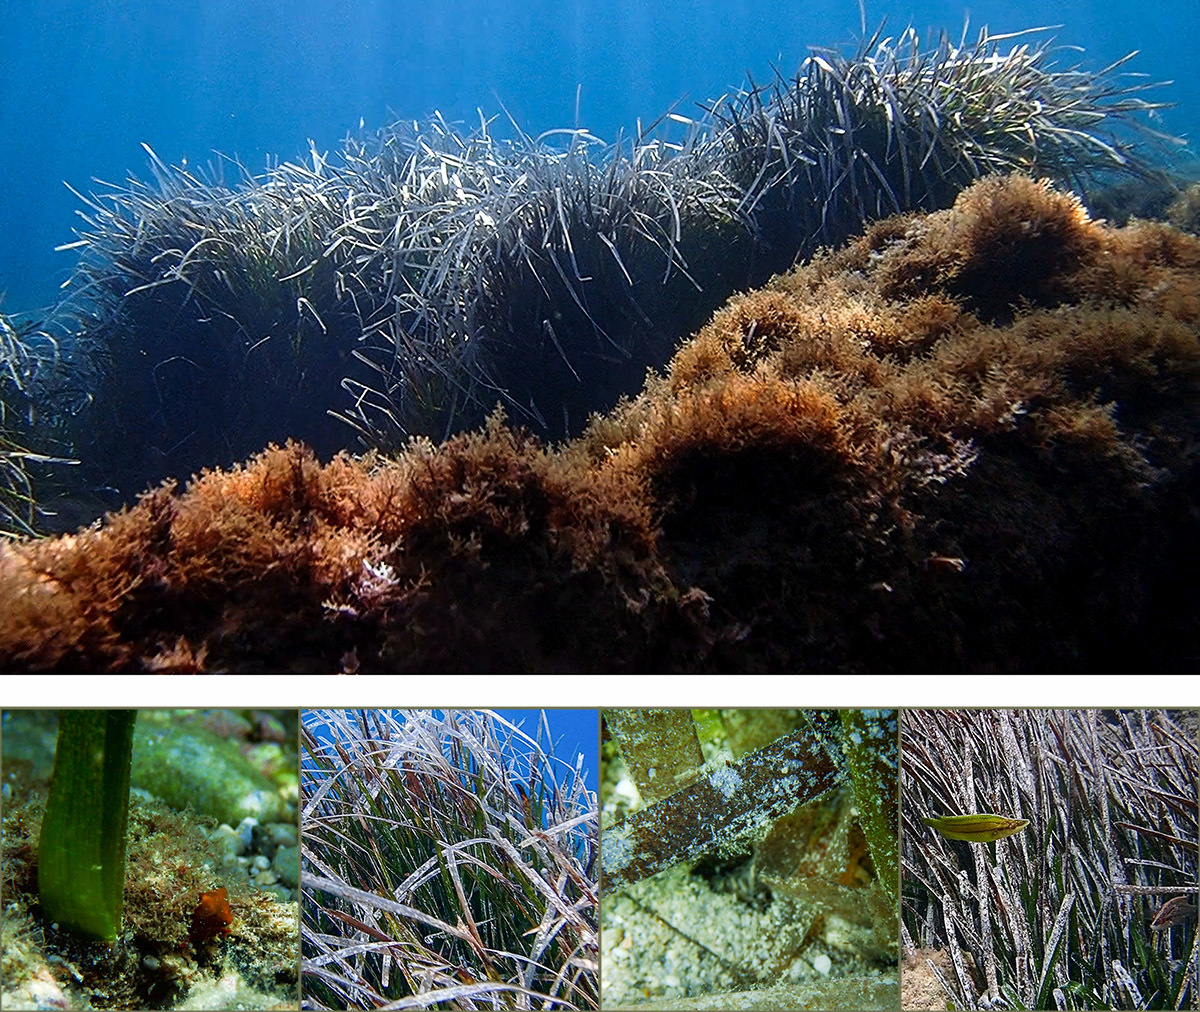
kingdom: Plantae
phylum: Tracheophyta
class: Liliopsida
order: Alismatales
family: Posidoniaceae
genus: Posidonia
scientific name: Posidonia oceanica
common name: Mediterranean tapeweed
